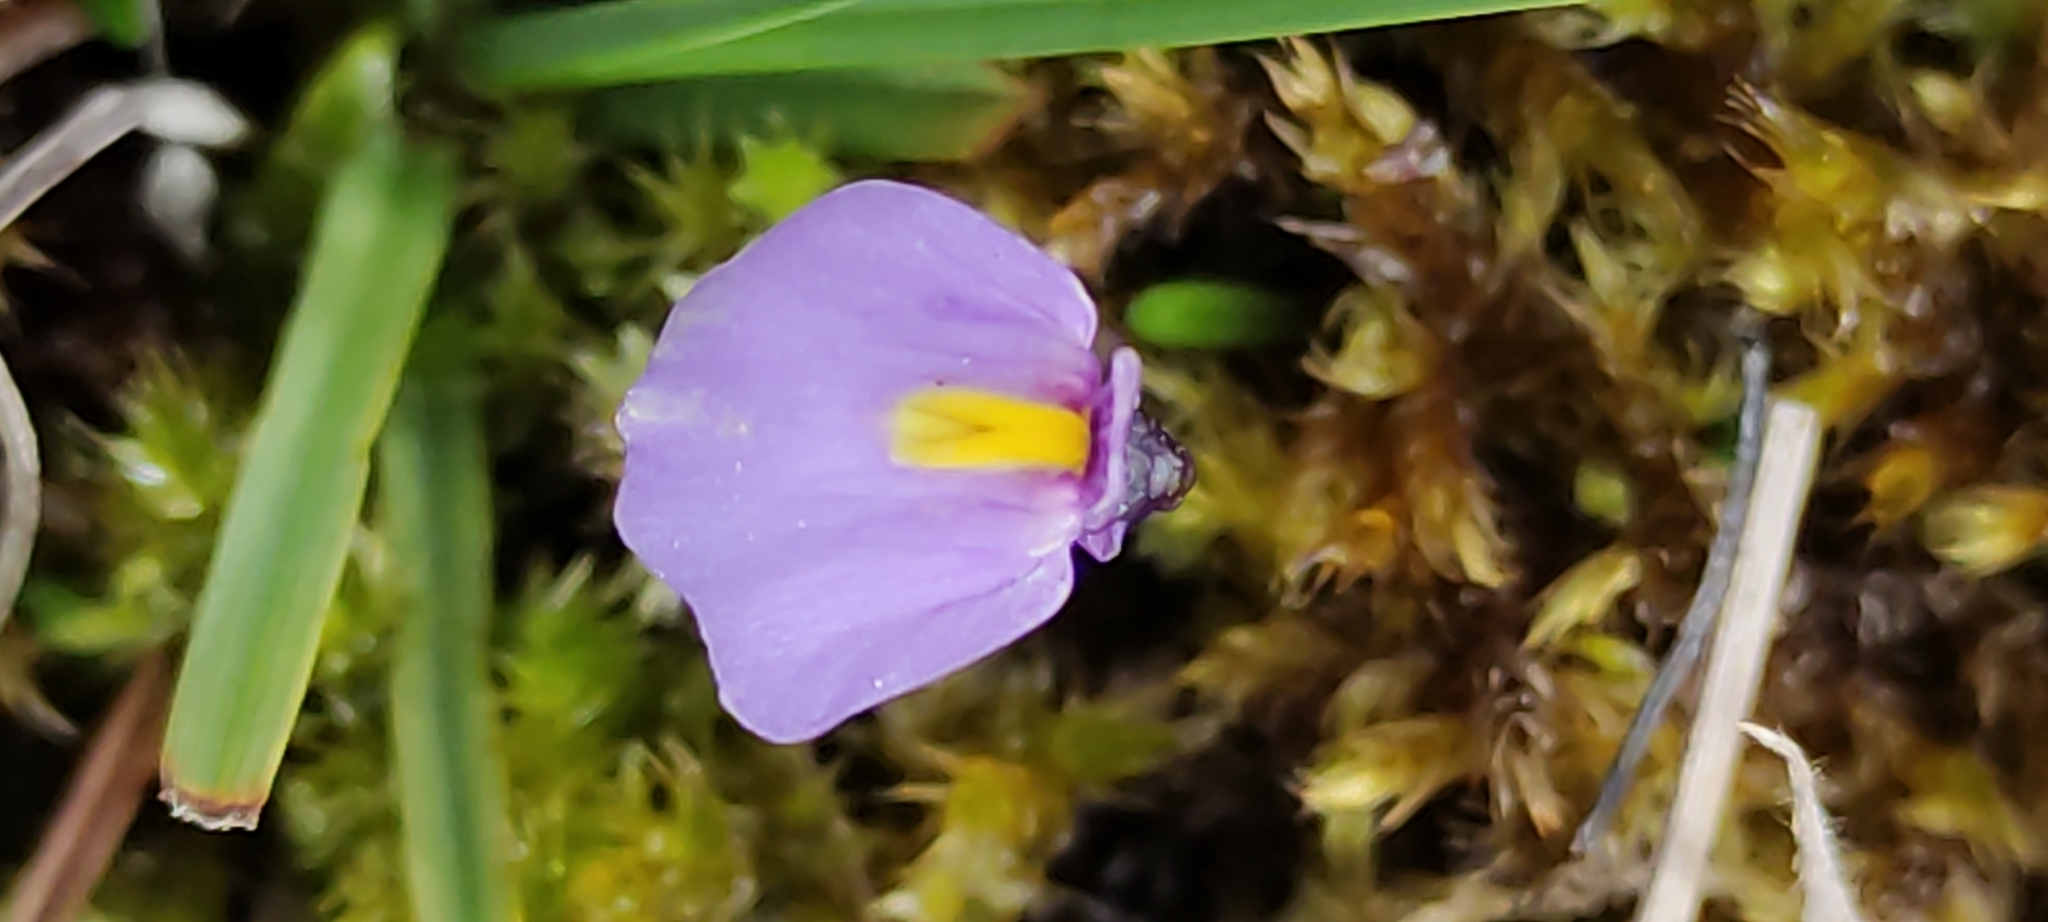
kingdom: Plantae
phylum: Tracheophyta
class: Magnoliopsida
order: Lamiales
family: Lentibulariaceae
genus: Utricularia
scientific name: Utricularia dichotoma
